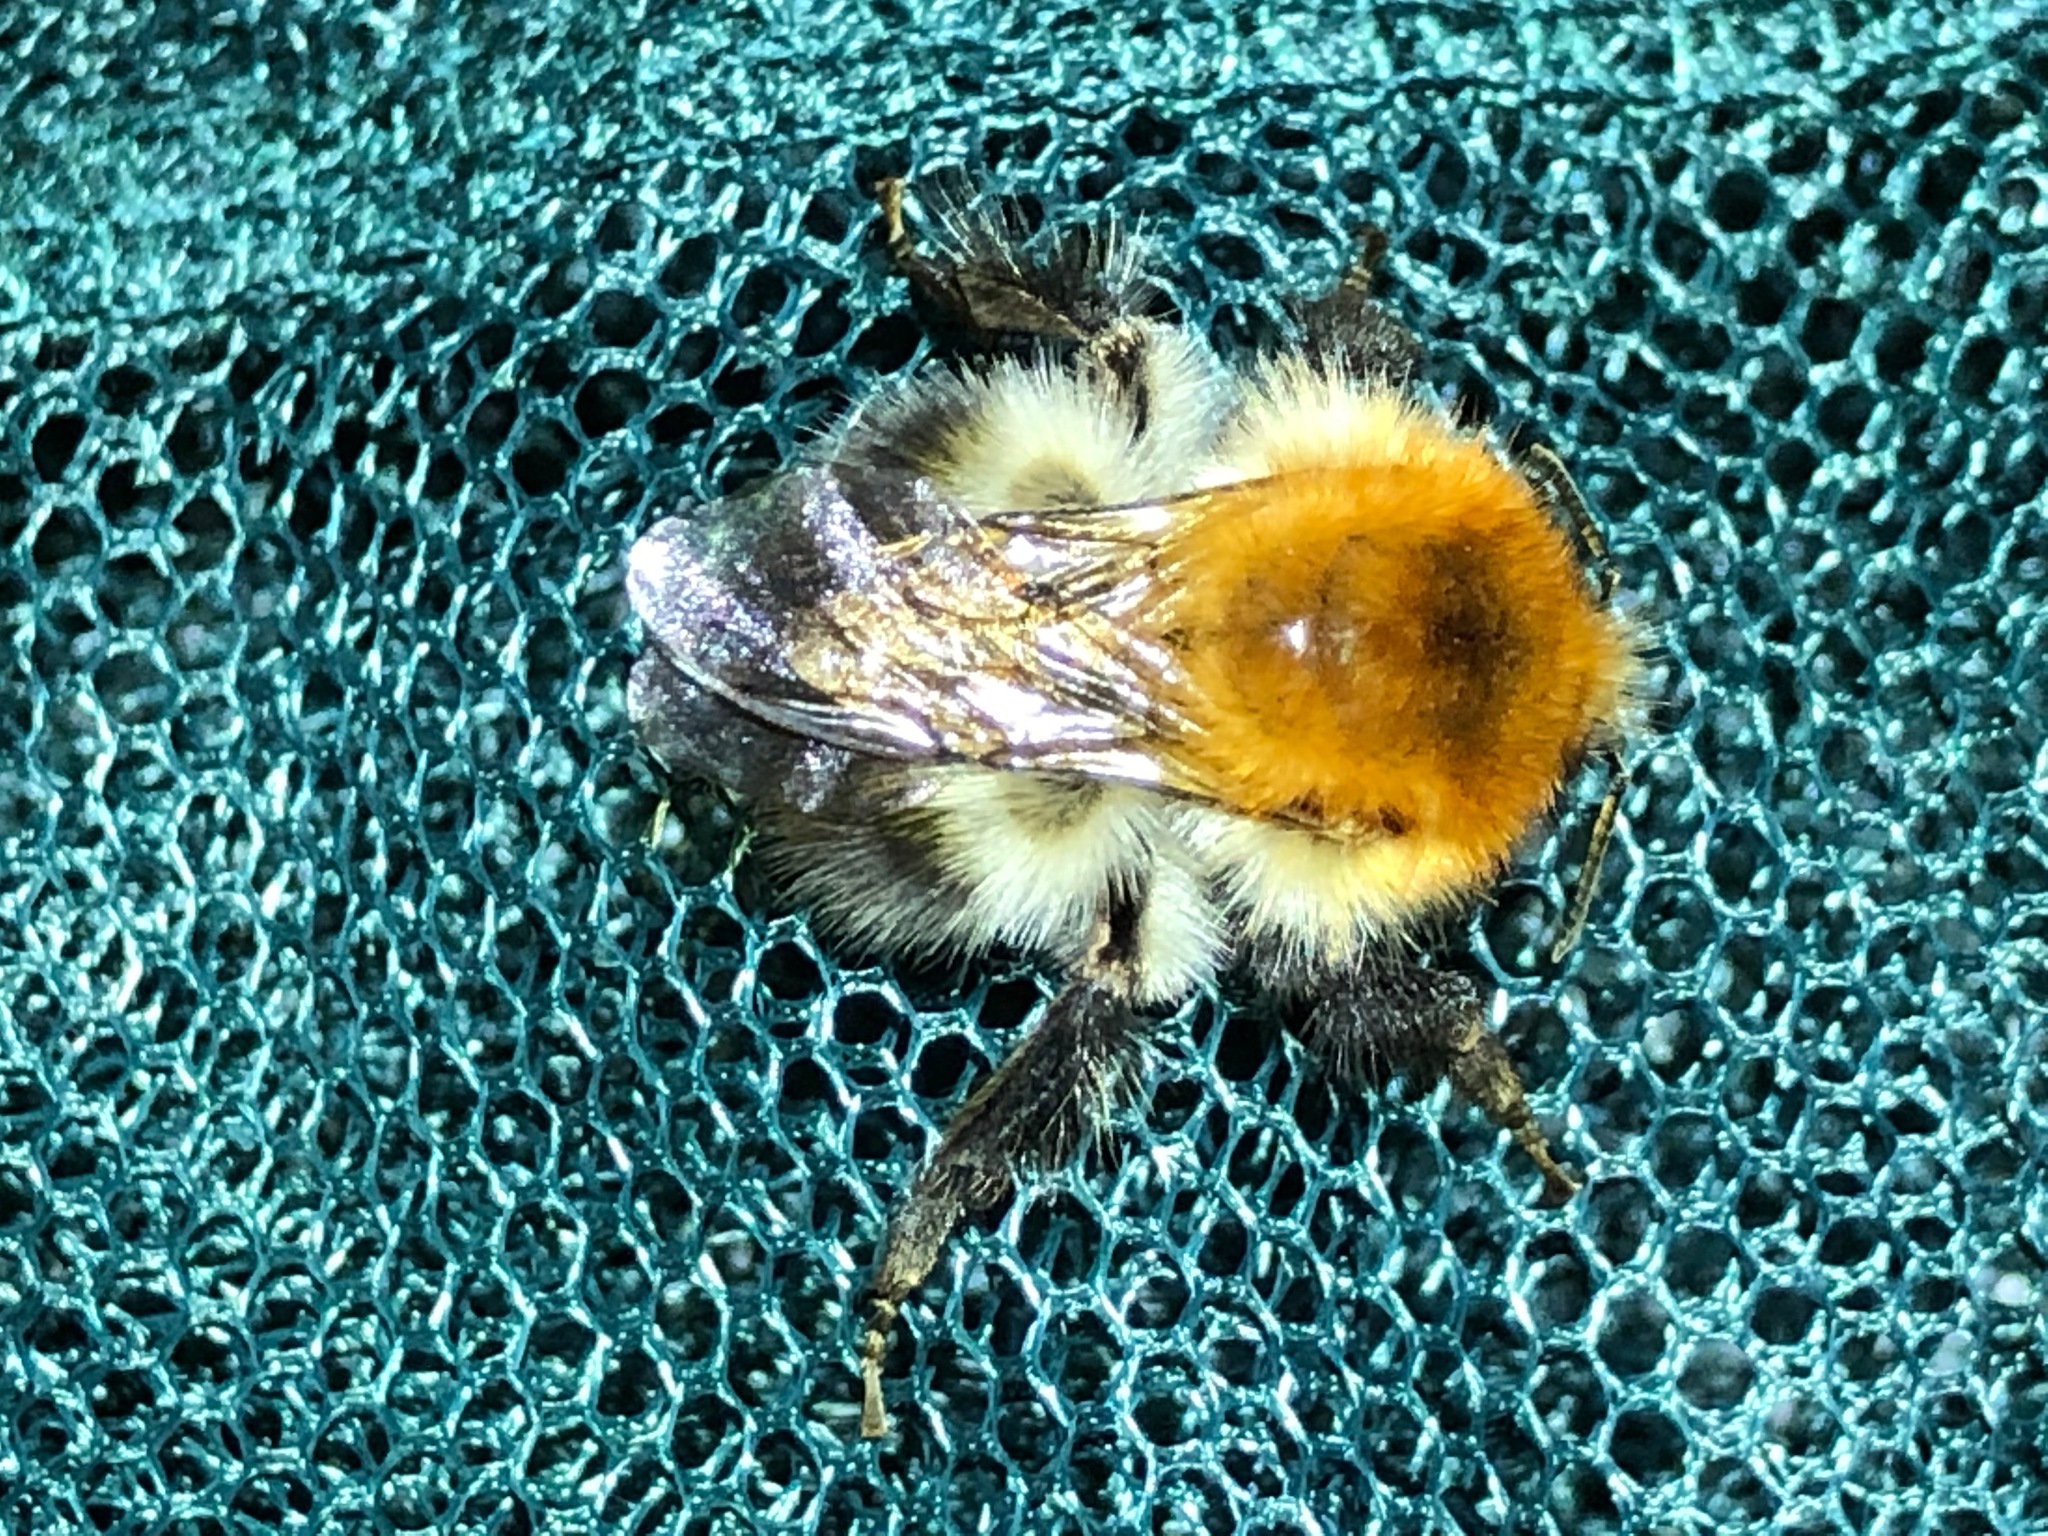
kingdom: Animalia
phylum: Arthropoda
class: Insecta
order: Hymenoptera
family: Apidae
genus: Bombus
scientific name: Bombus pascuorum
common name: Common carder bee
